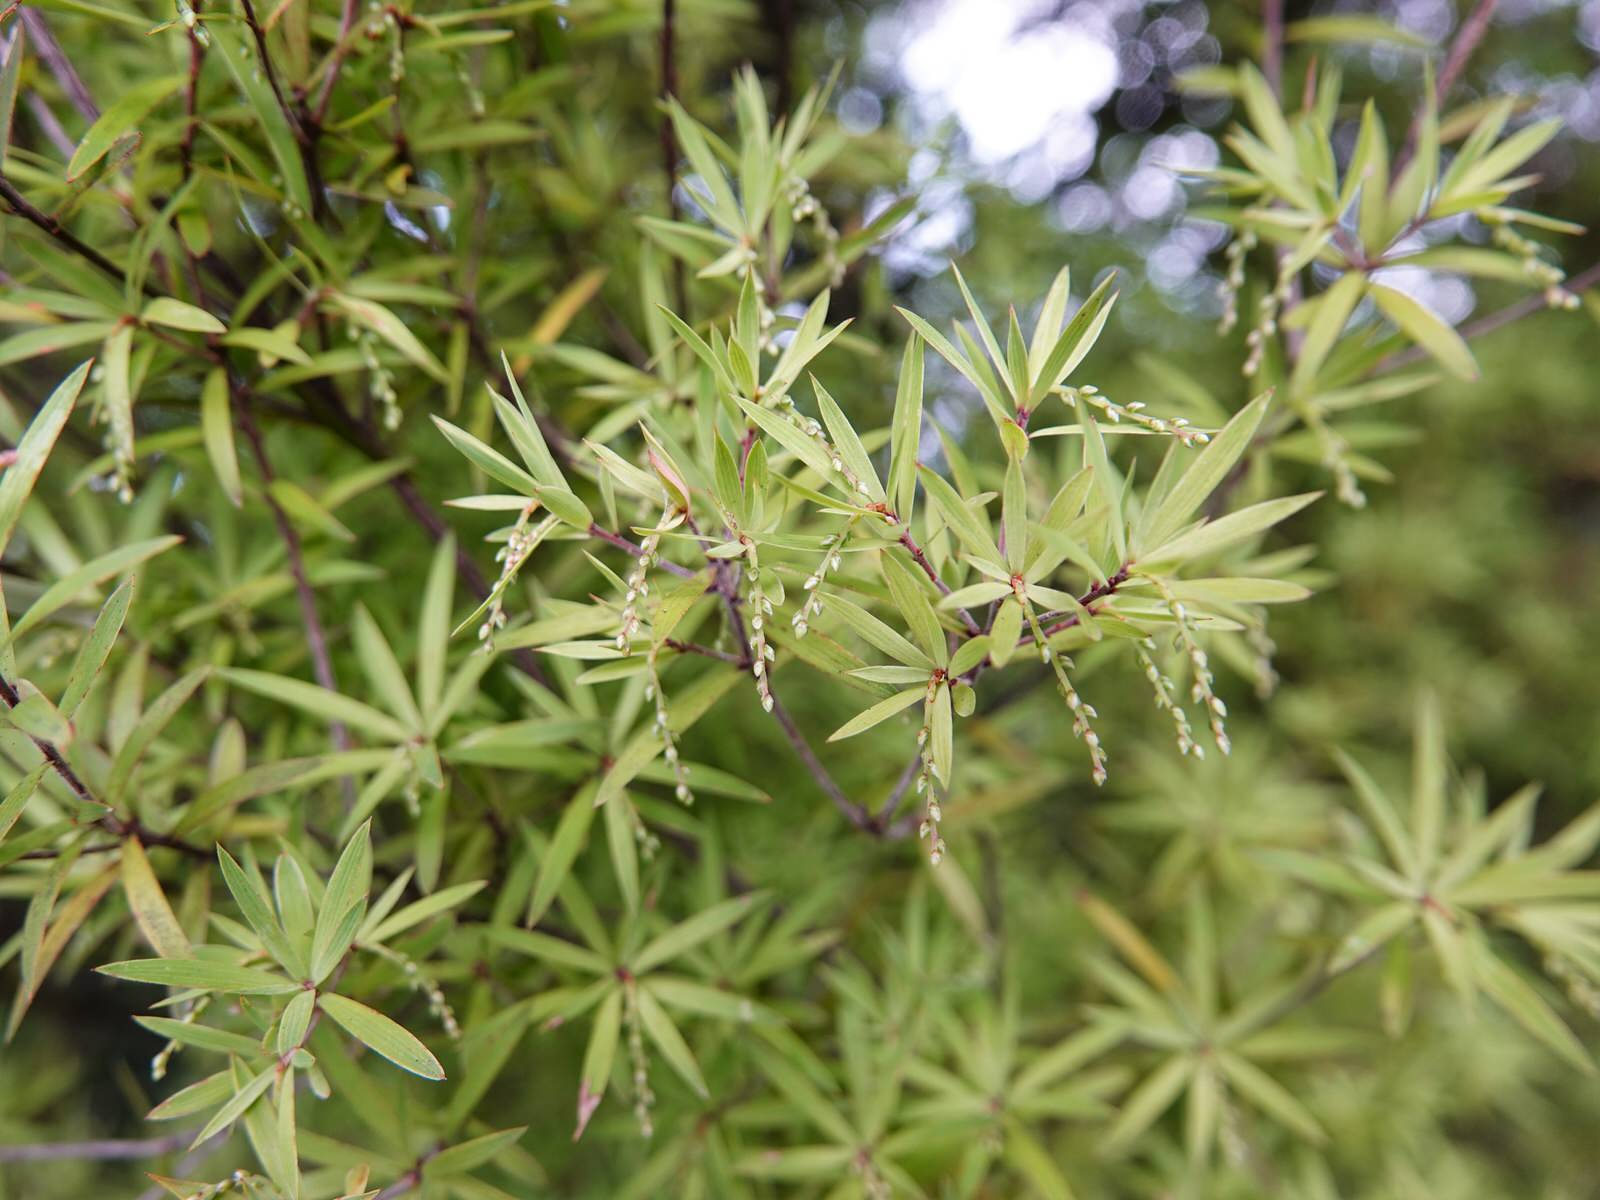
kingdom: Plantae
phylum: Tracheophyta
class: Magnoliopsida
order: Ericales
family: Ericaceae
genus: Leucopogon
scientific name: Leucopogon fasciculatus
